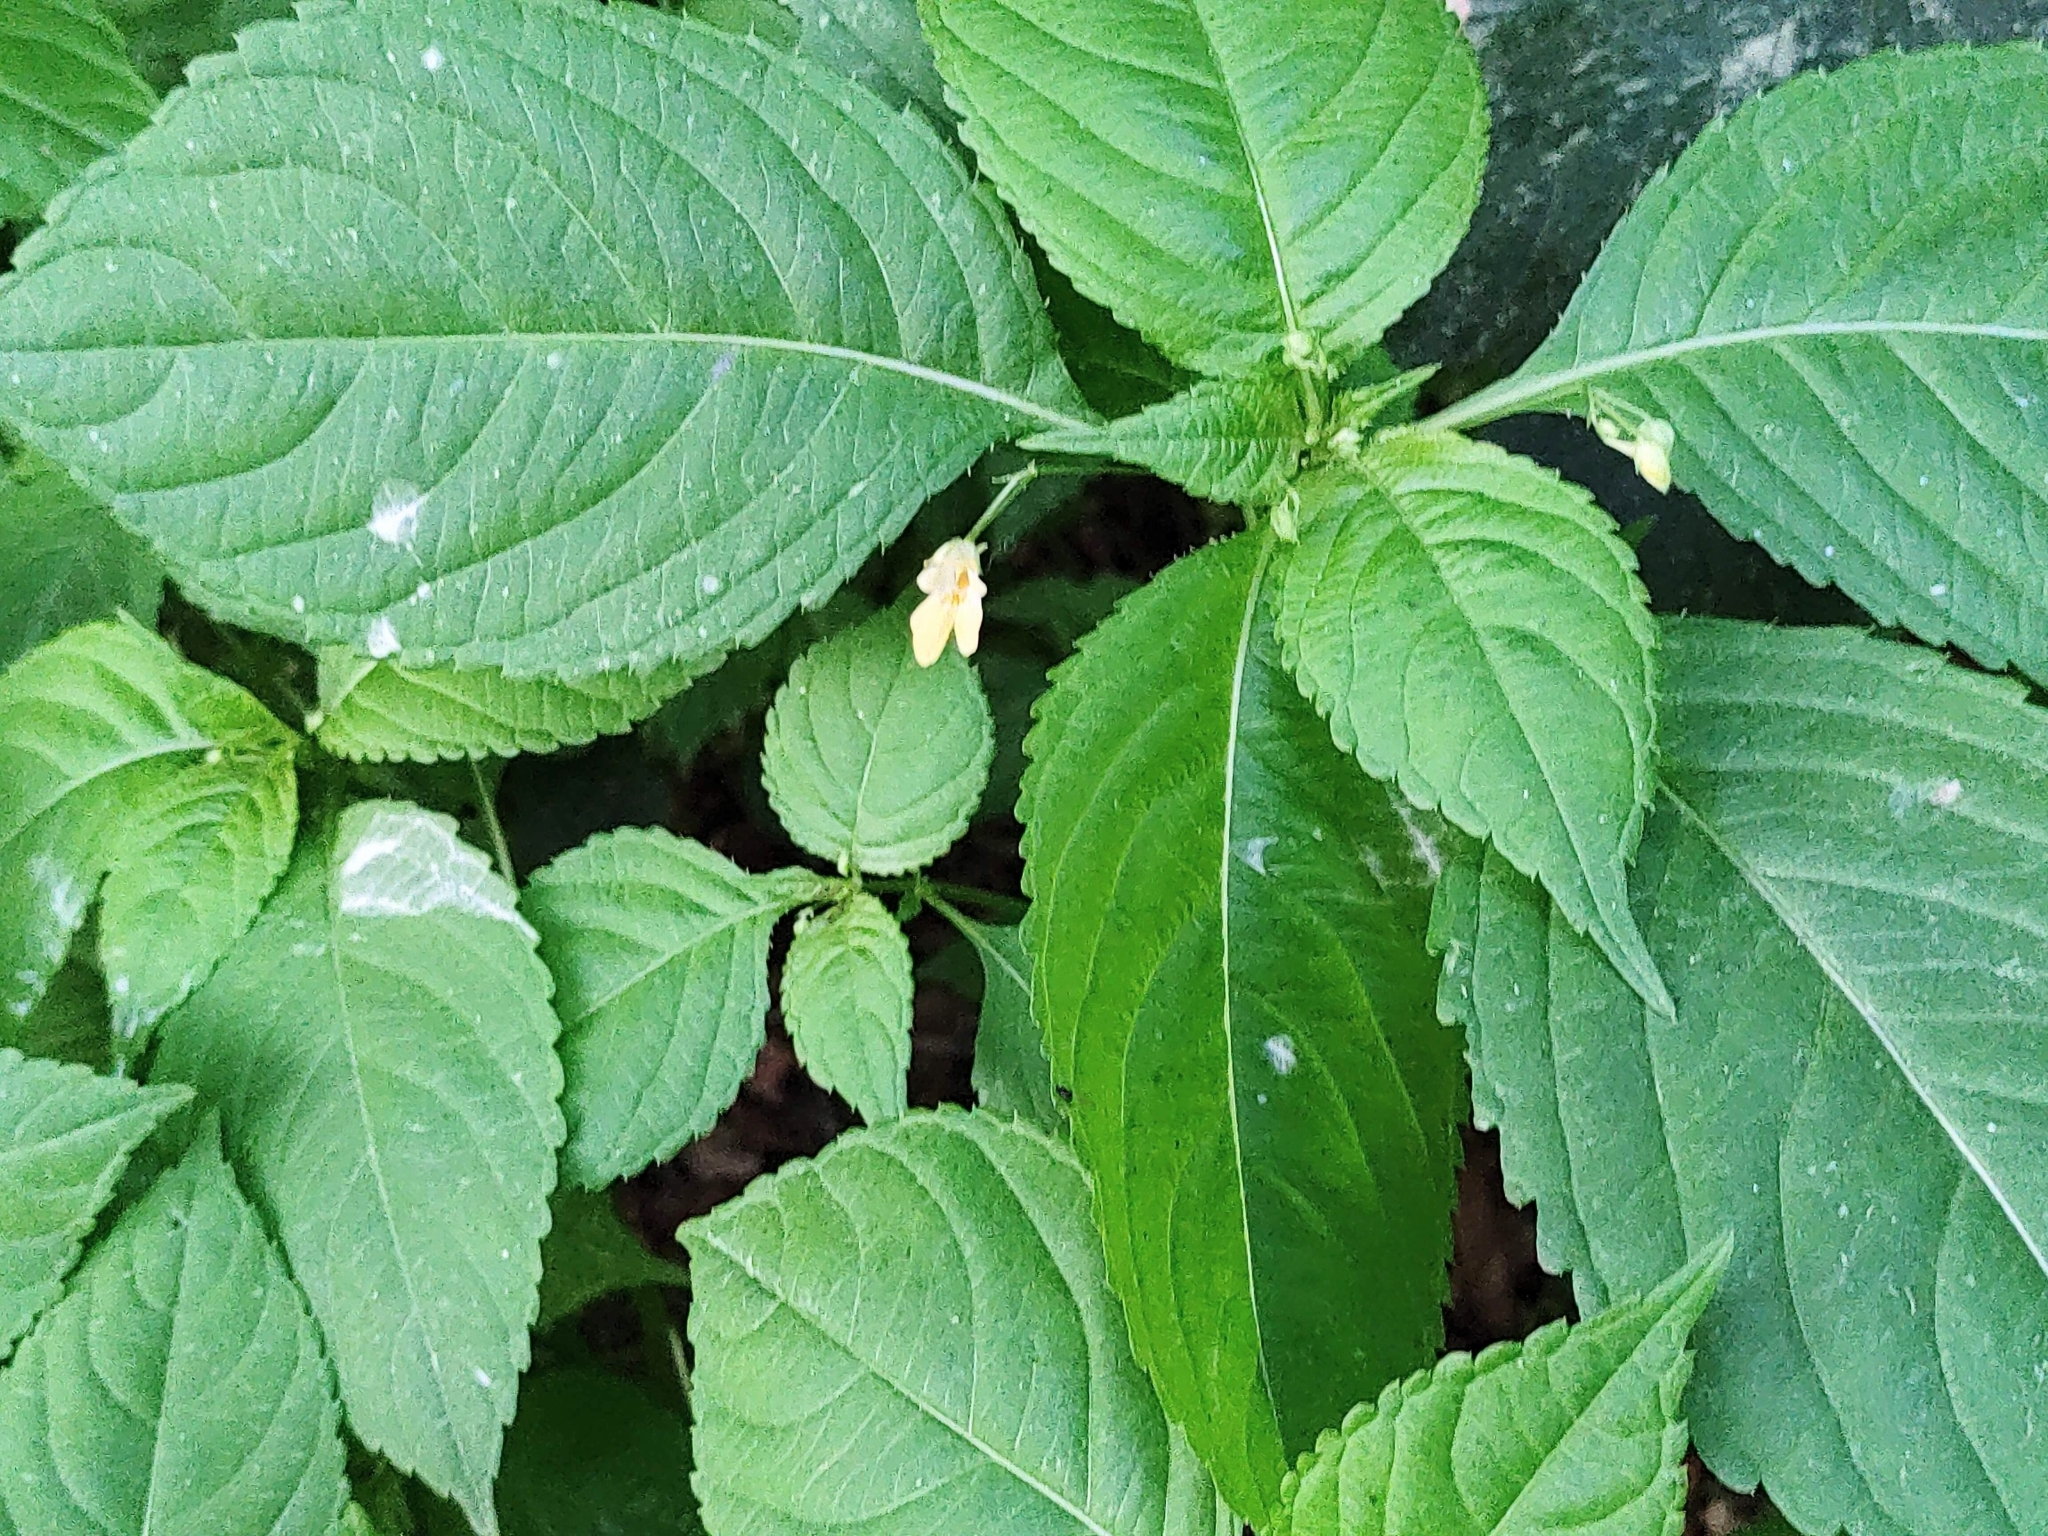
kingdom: Plantae
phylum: Tracheophyta
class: Magnoliopsida
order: Ericales
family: Balsaminaceae
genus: Impatiens
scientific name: Impatiens parviflora
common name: Small balsam
